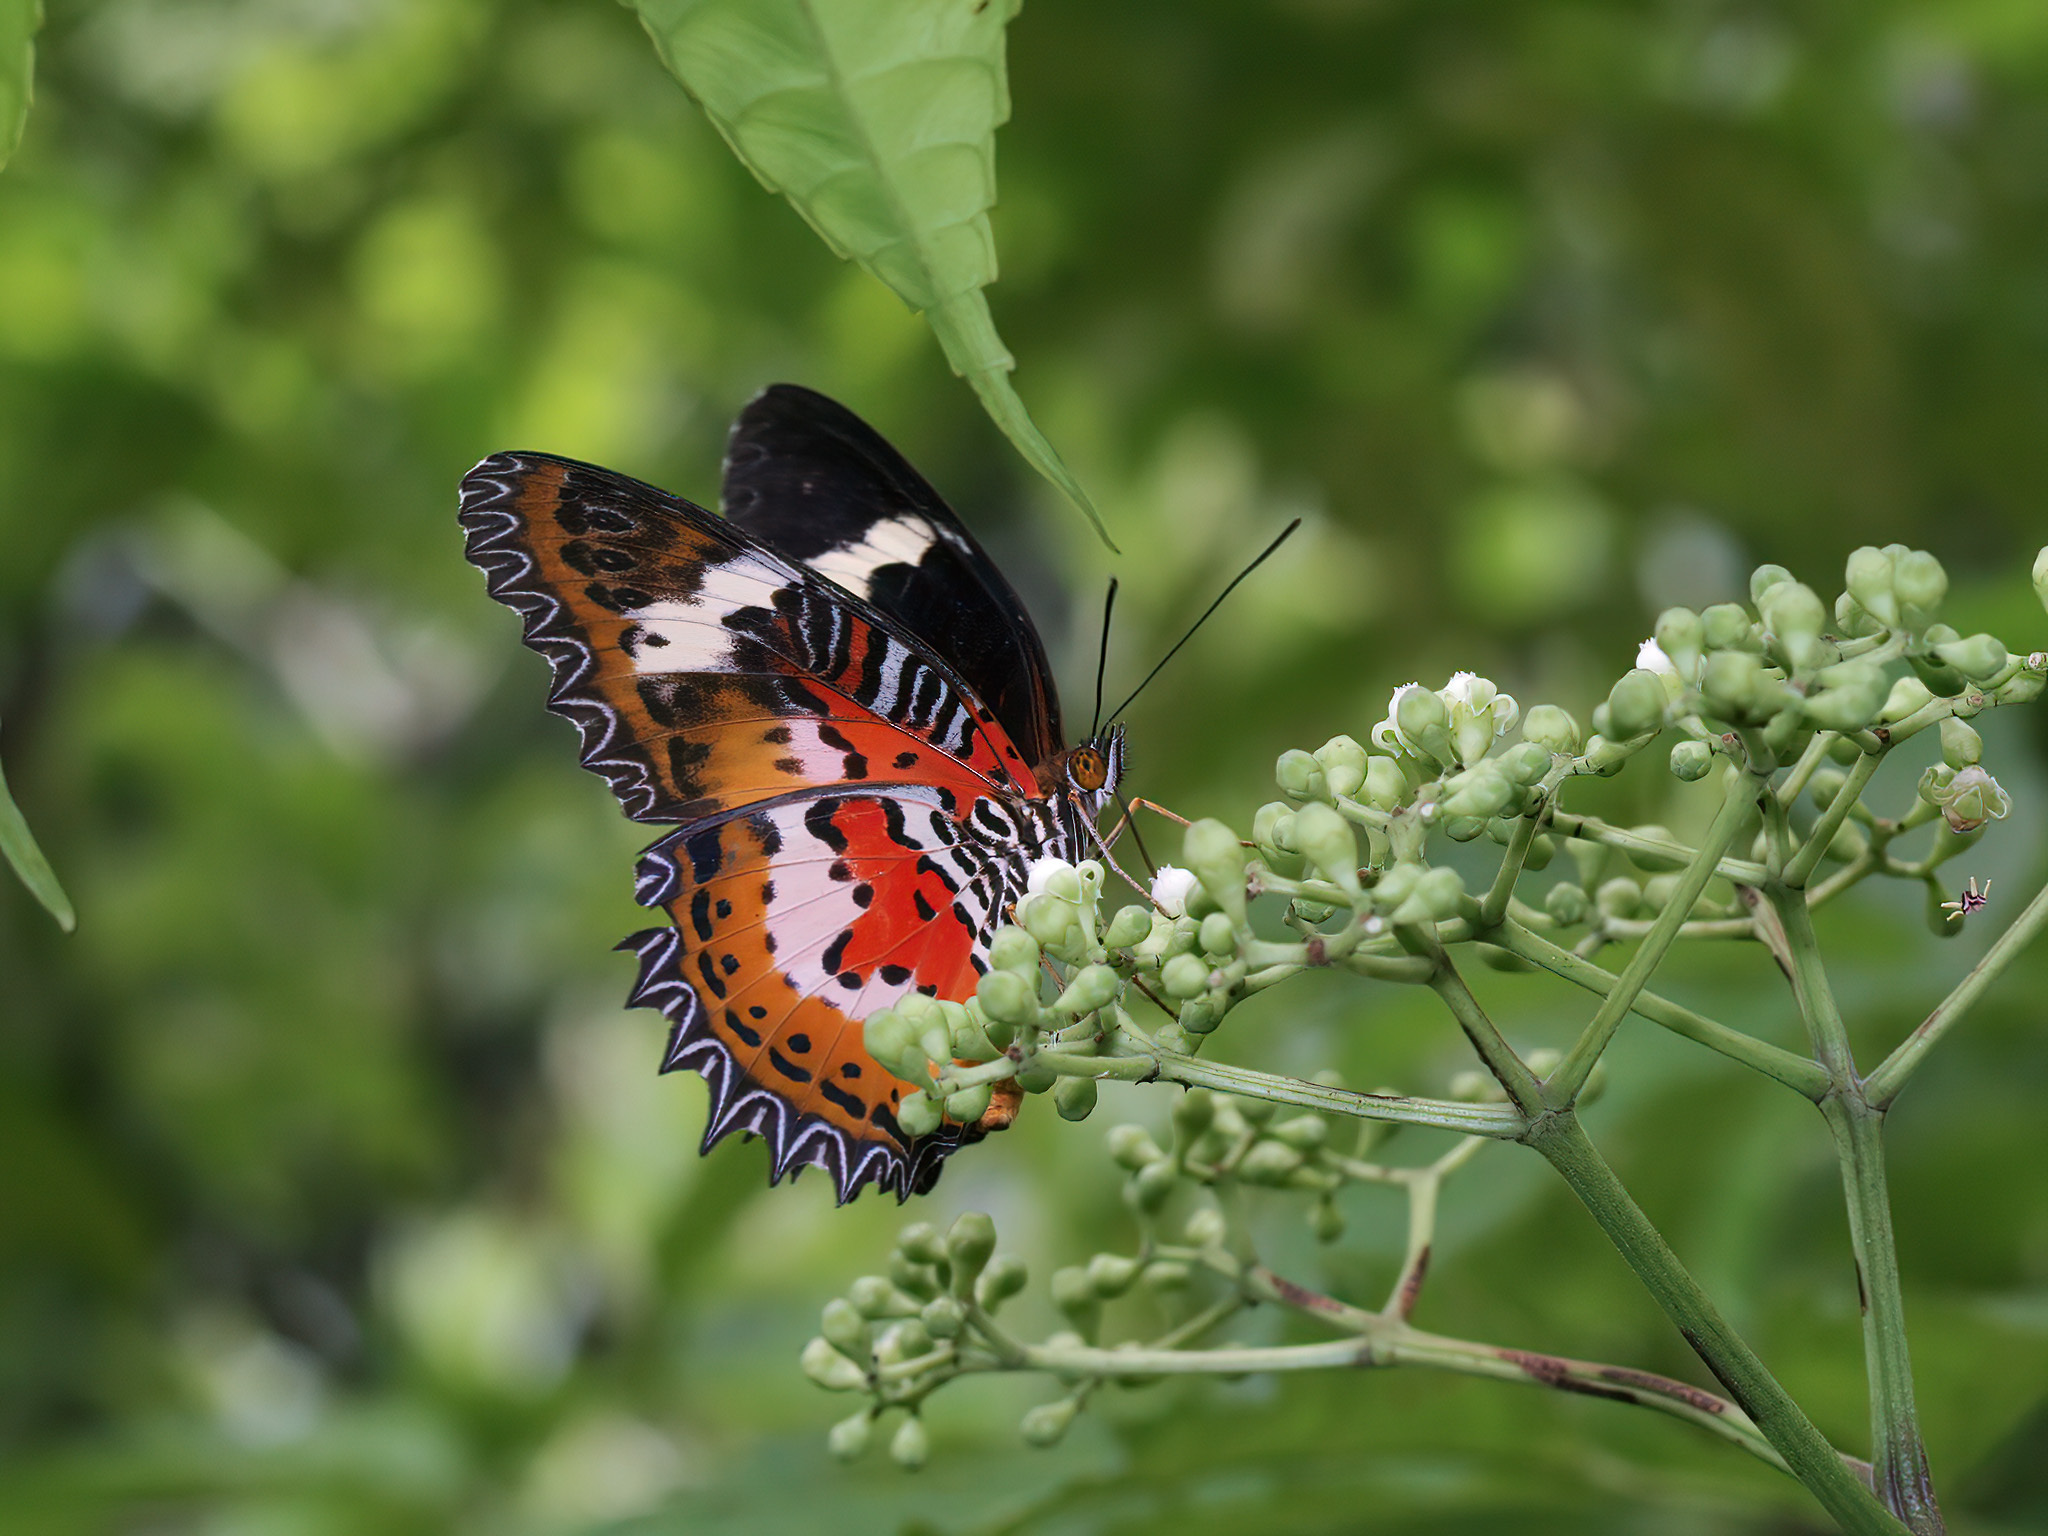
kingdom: Animalia
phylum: Arthropoda
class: Insecta
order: Lepidoptera
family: Nymphalidae
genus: Cethosia
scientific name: Cethosia hypsea
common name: Malayan lacewing butterfly
